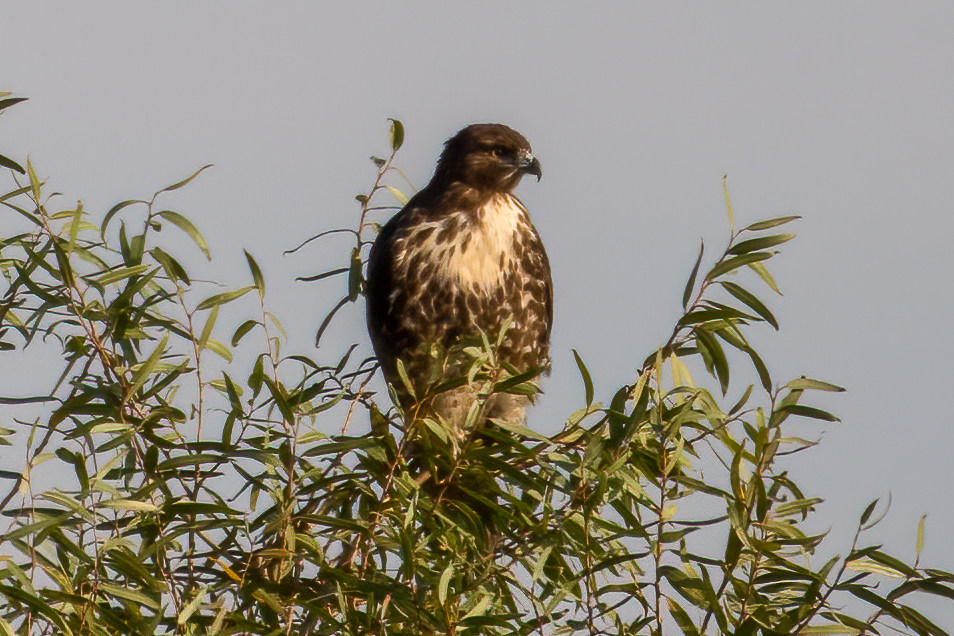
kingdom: Animalia
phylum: Chordata
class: Aves
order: Accipitriformes
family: Accipitridae
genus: Buteo
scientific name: Buteo jamaicensis
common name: Red-tailed hawk
